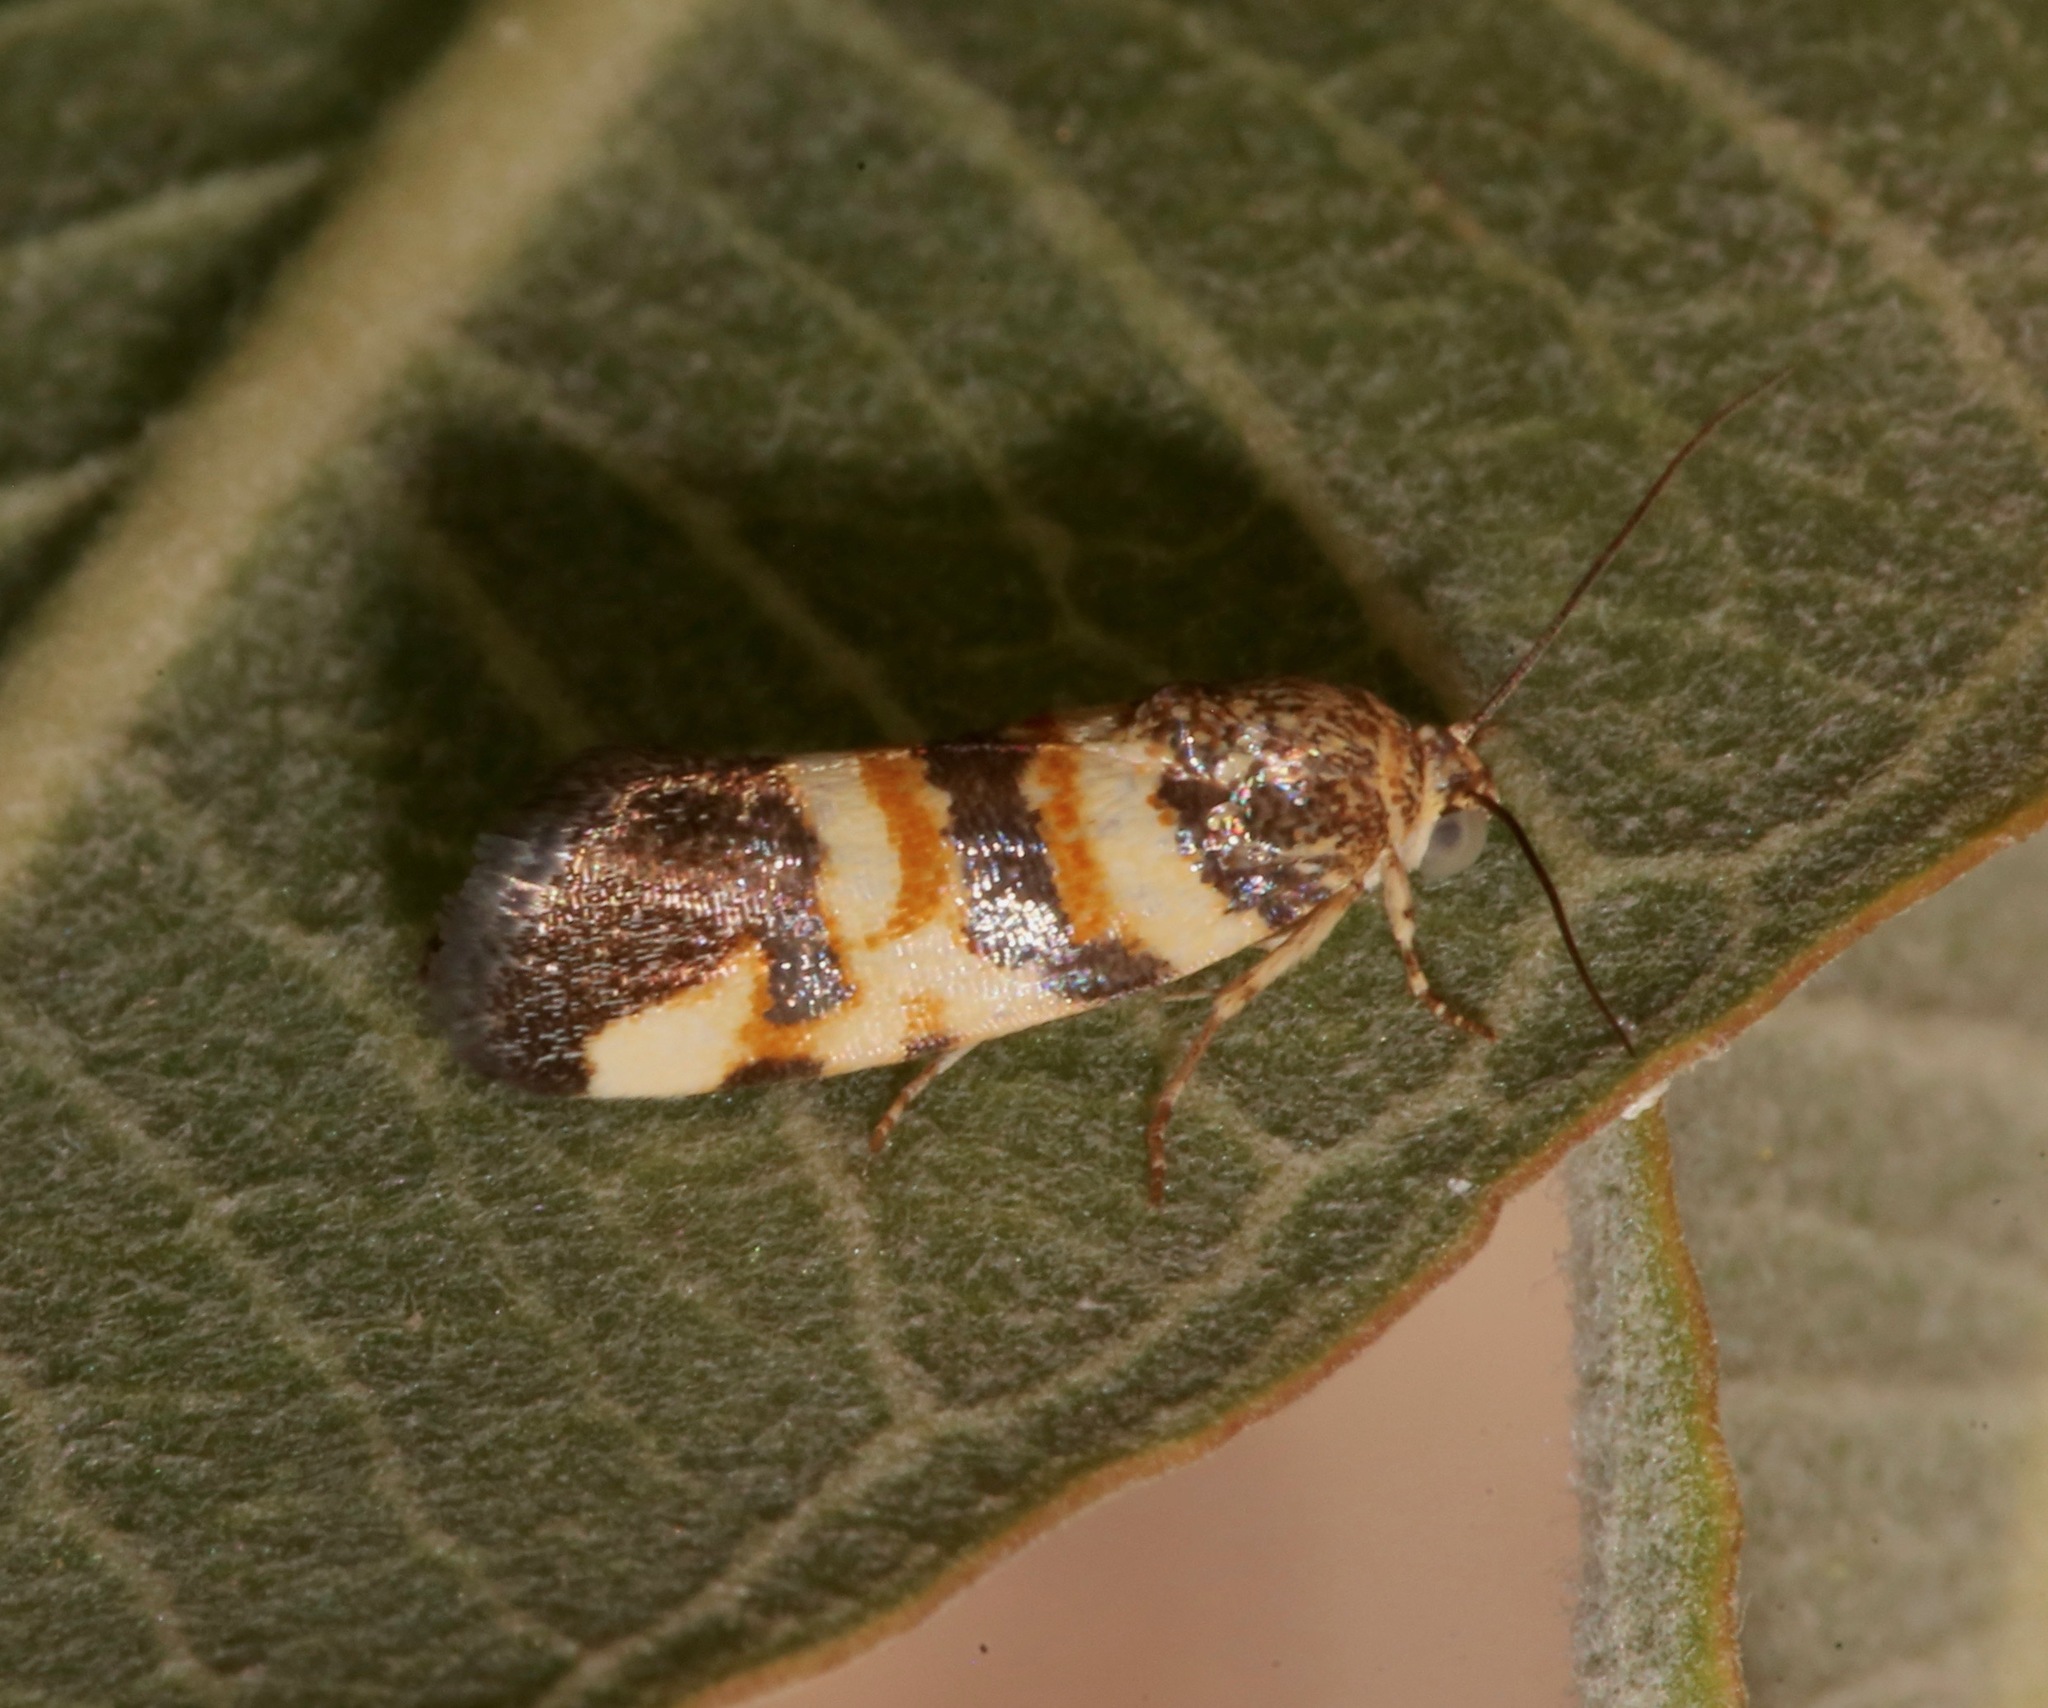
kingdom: Animalia
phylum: Arthropoda
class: Insecta
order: Lepidoptera
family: Noctuidae
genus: Spragueia
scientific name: Spragueia funeralis
